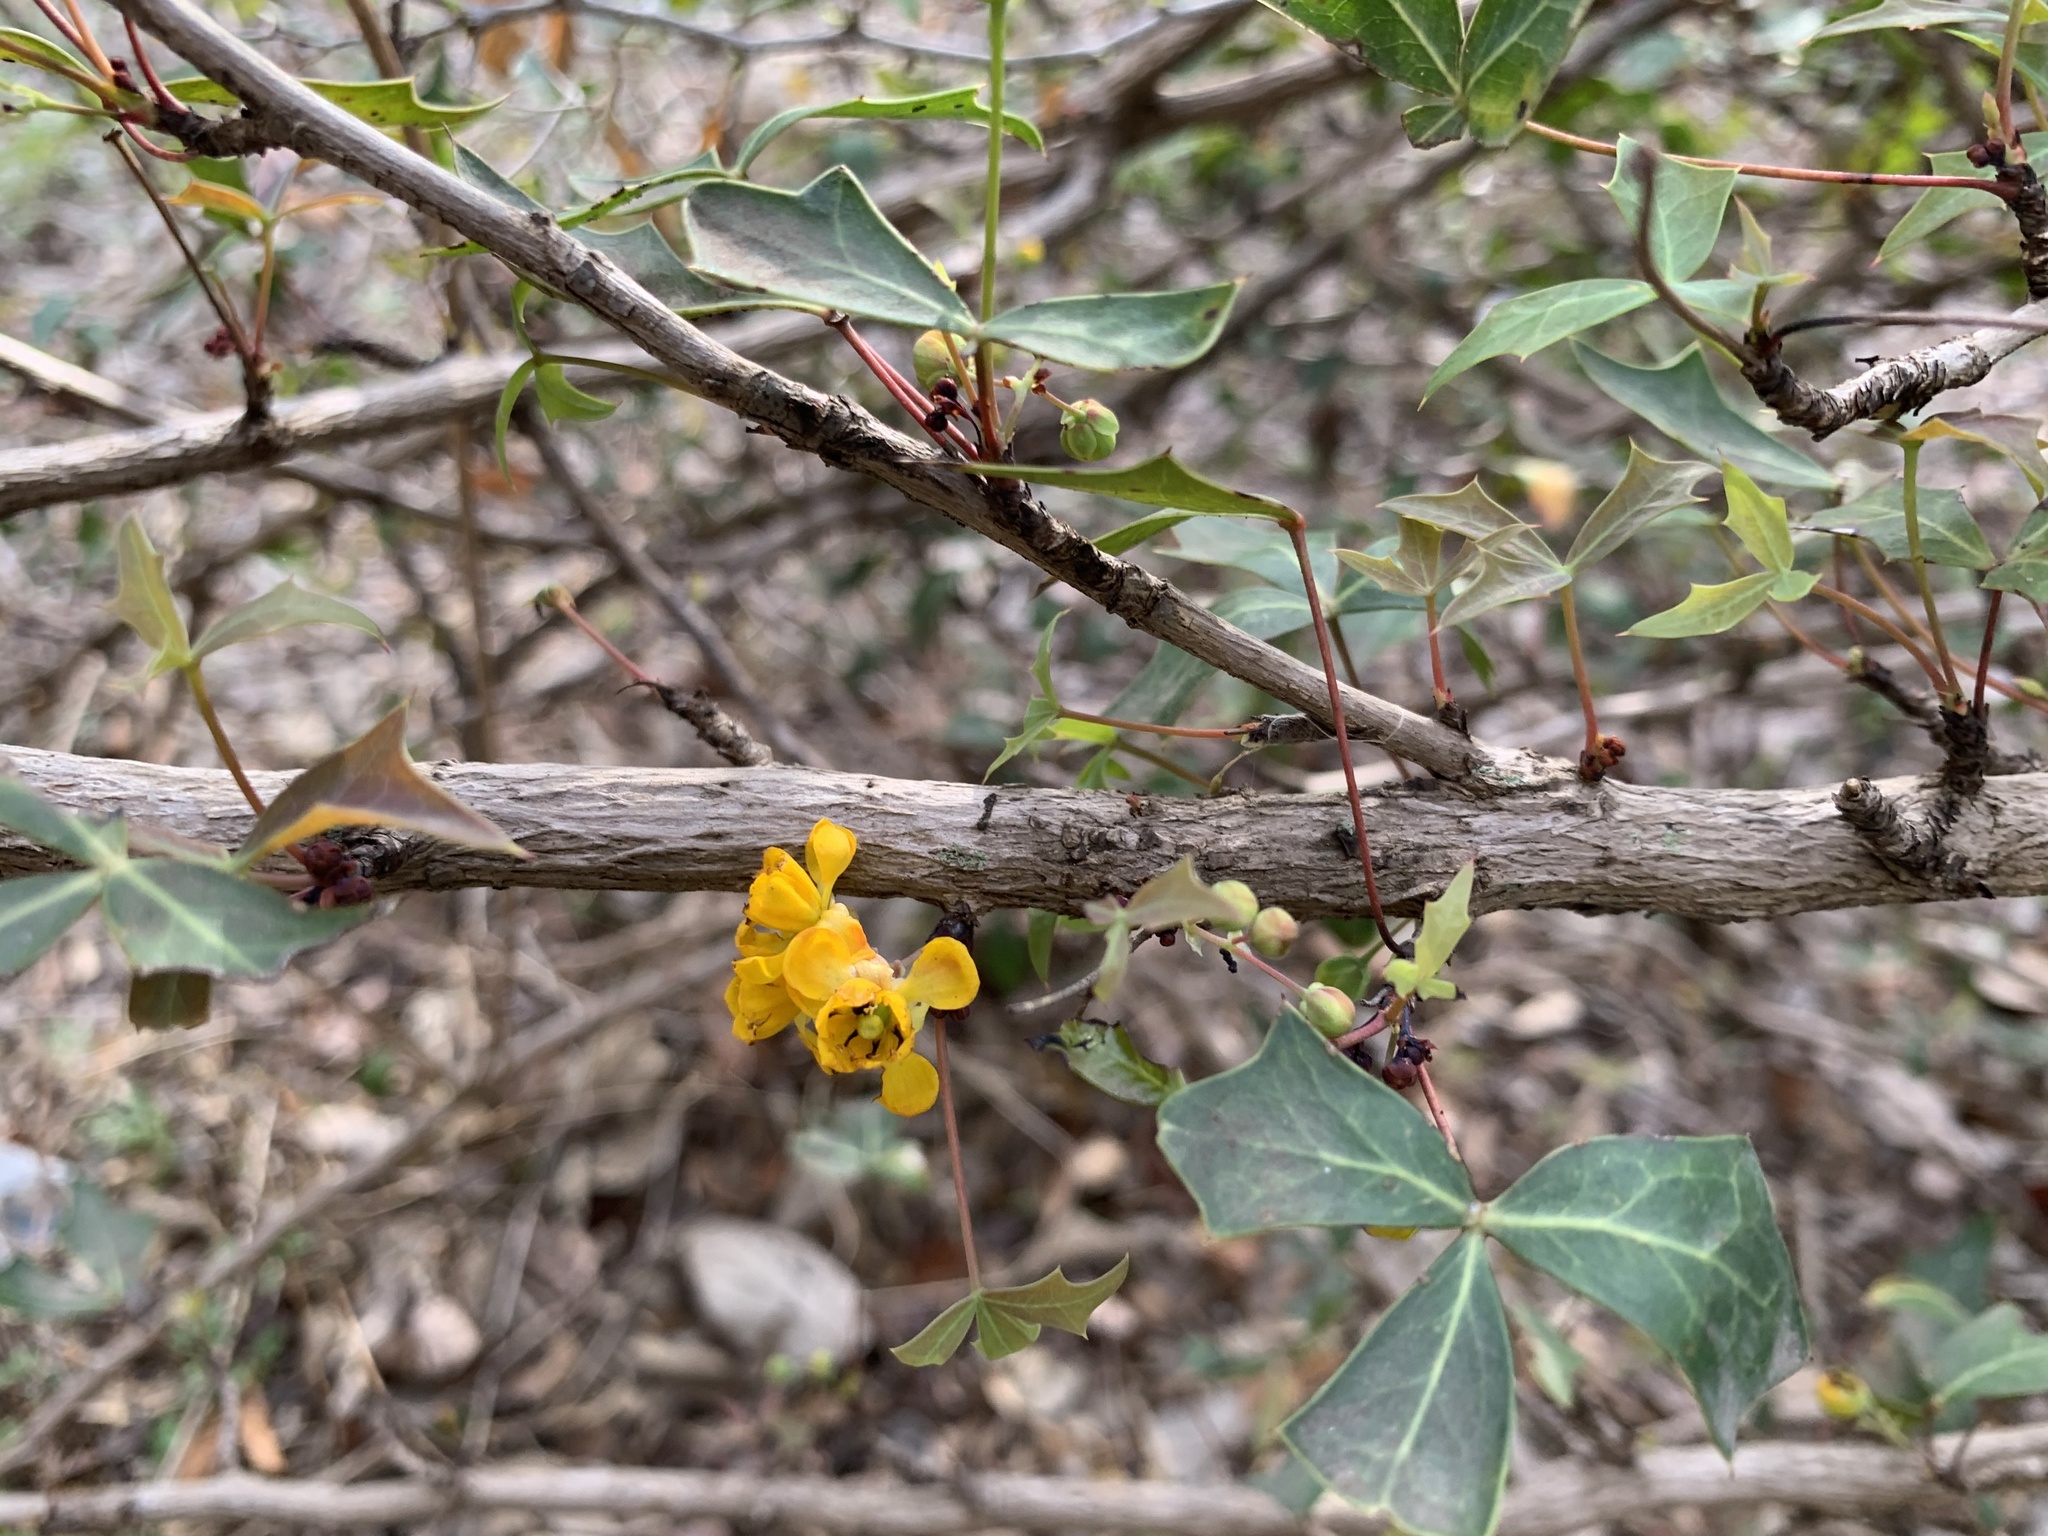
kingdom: Plantae
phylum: Tracheophyta
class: Magnoliopsida
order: Ranunculales
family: Berberidaceae
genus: Alloberberis
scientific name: Alloberberis trifoliolata
